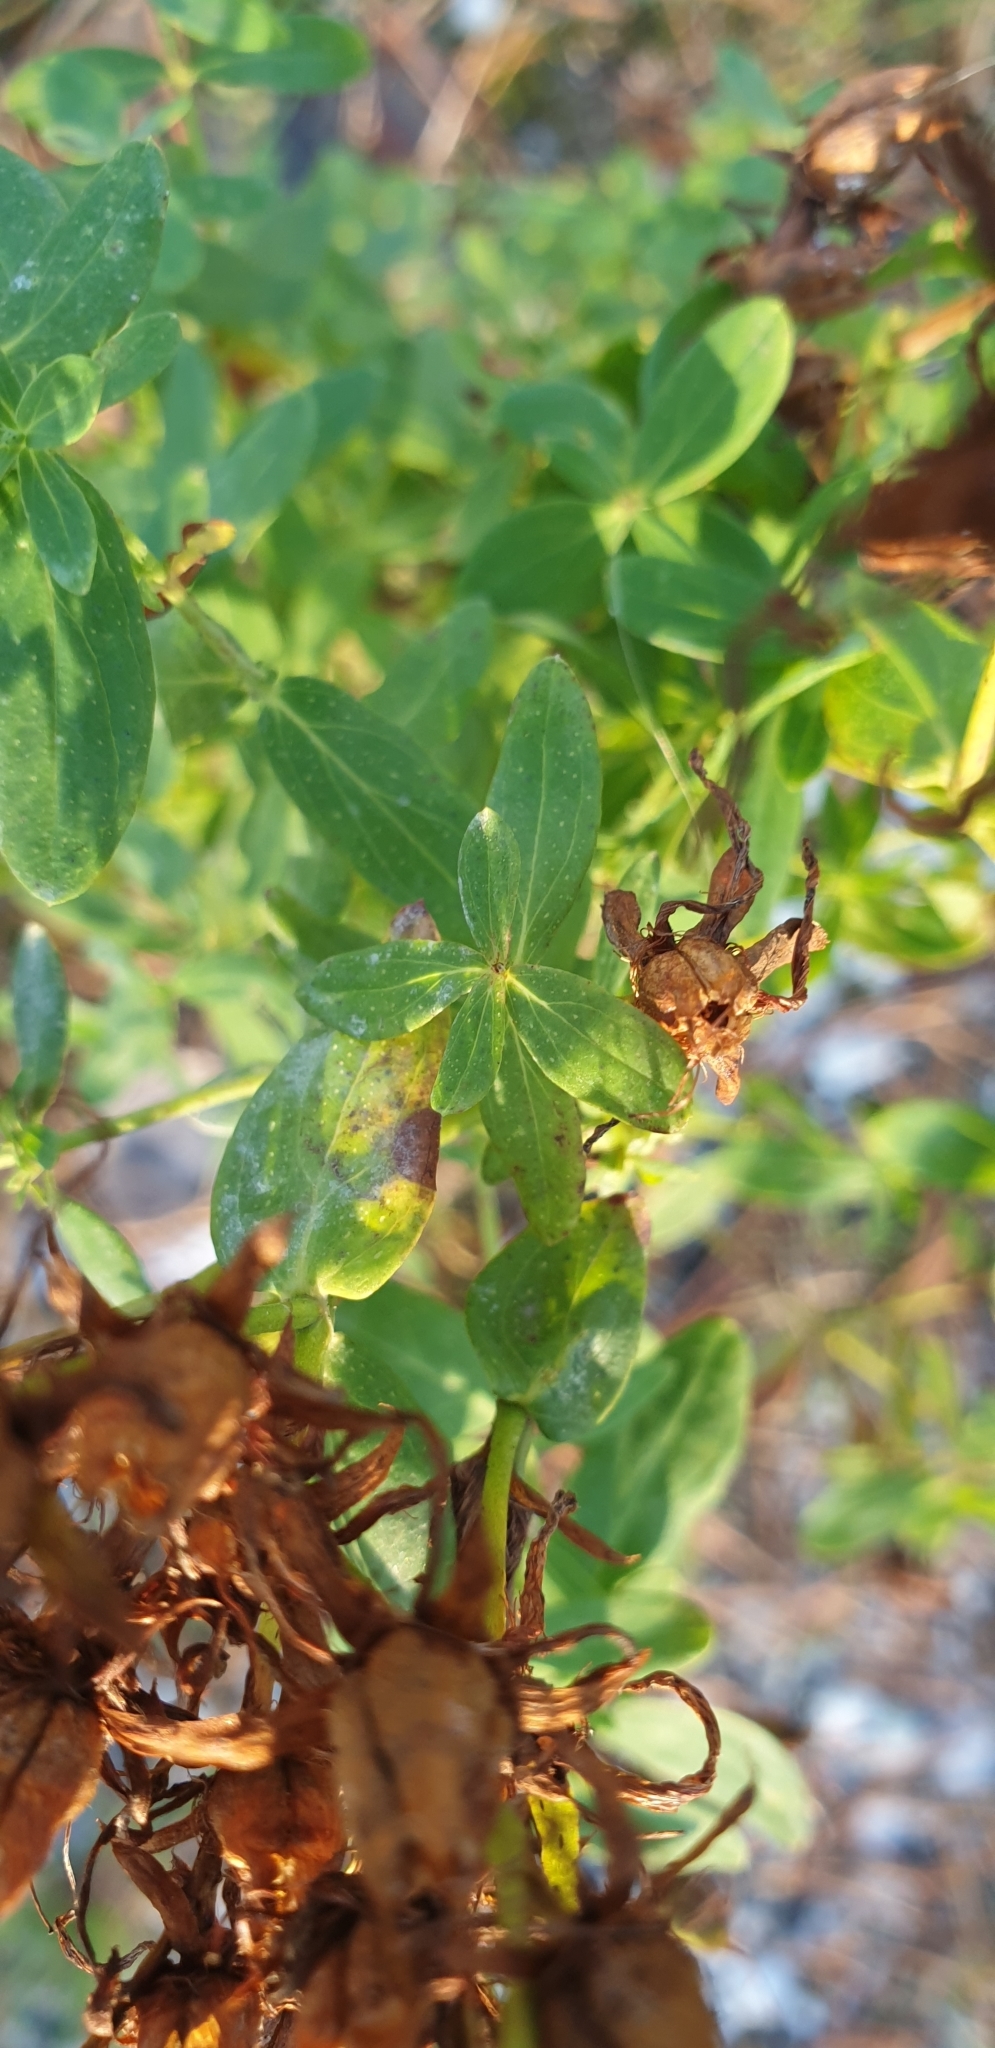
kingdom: Plantae
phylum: Tracheophyta
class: Magnoliopsida
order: Malpighiales
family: Hypericaceae
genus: Hypericum
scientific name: Hypericum perforatum
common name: Common st. johnswort
